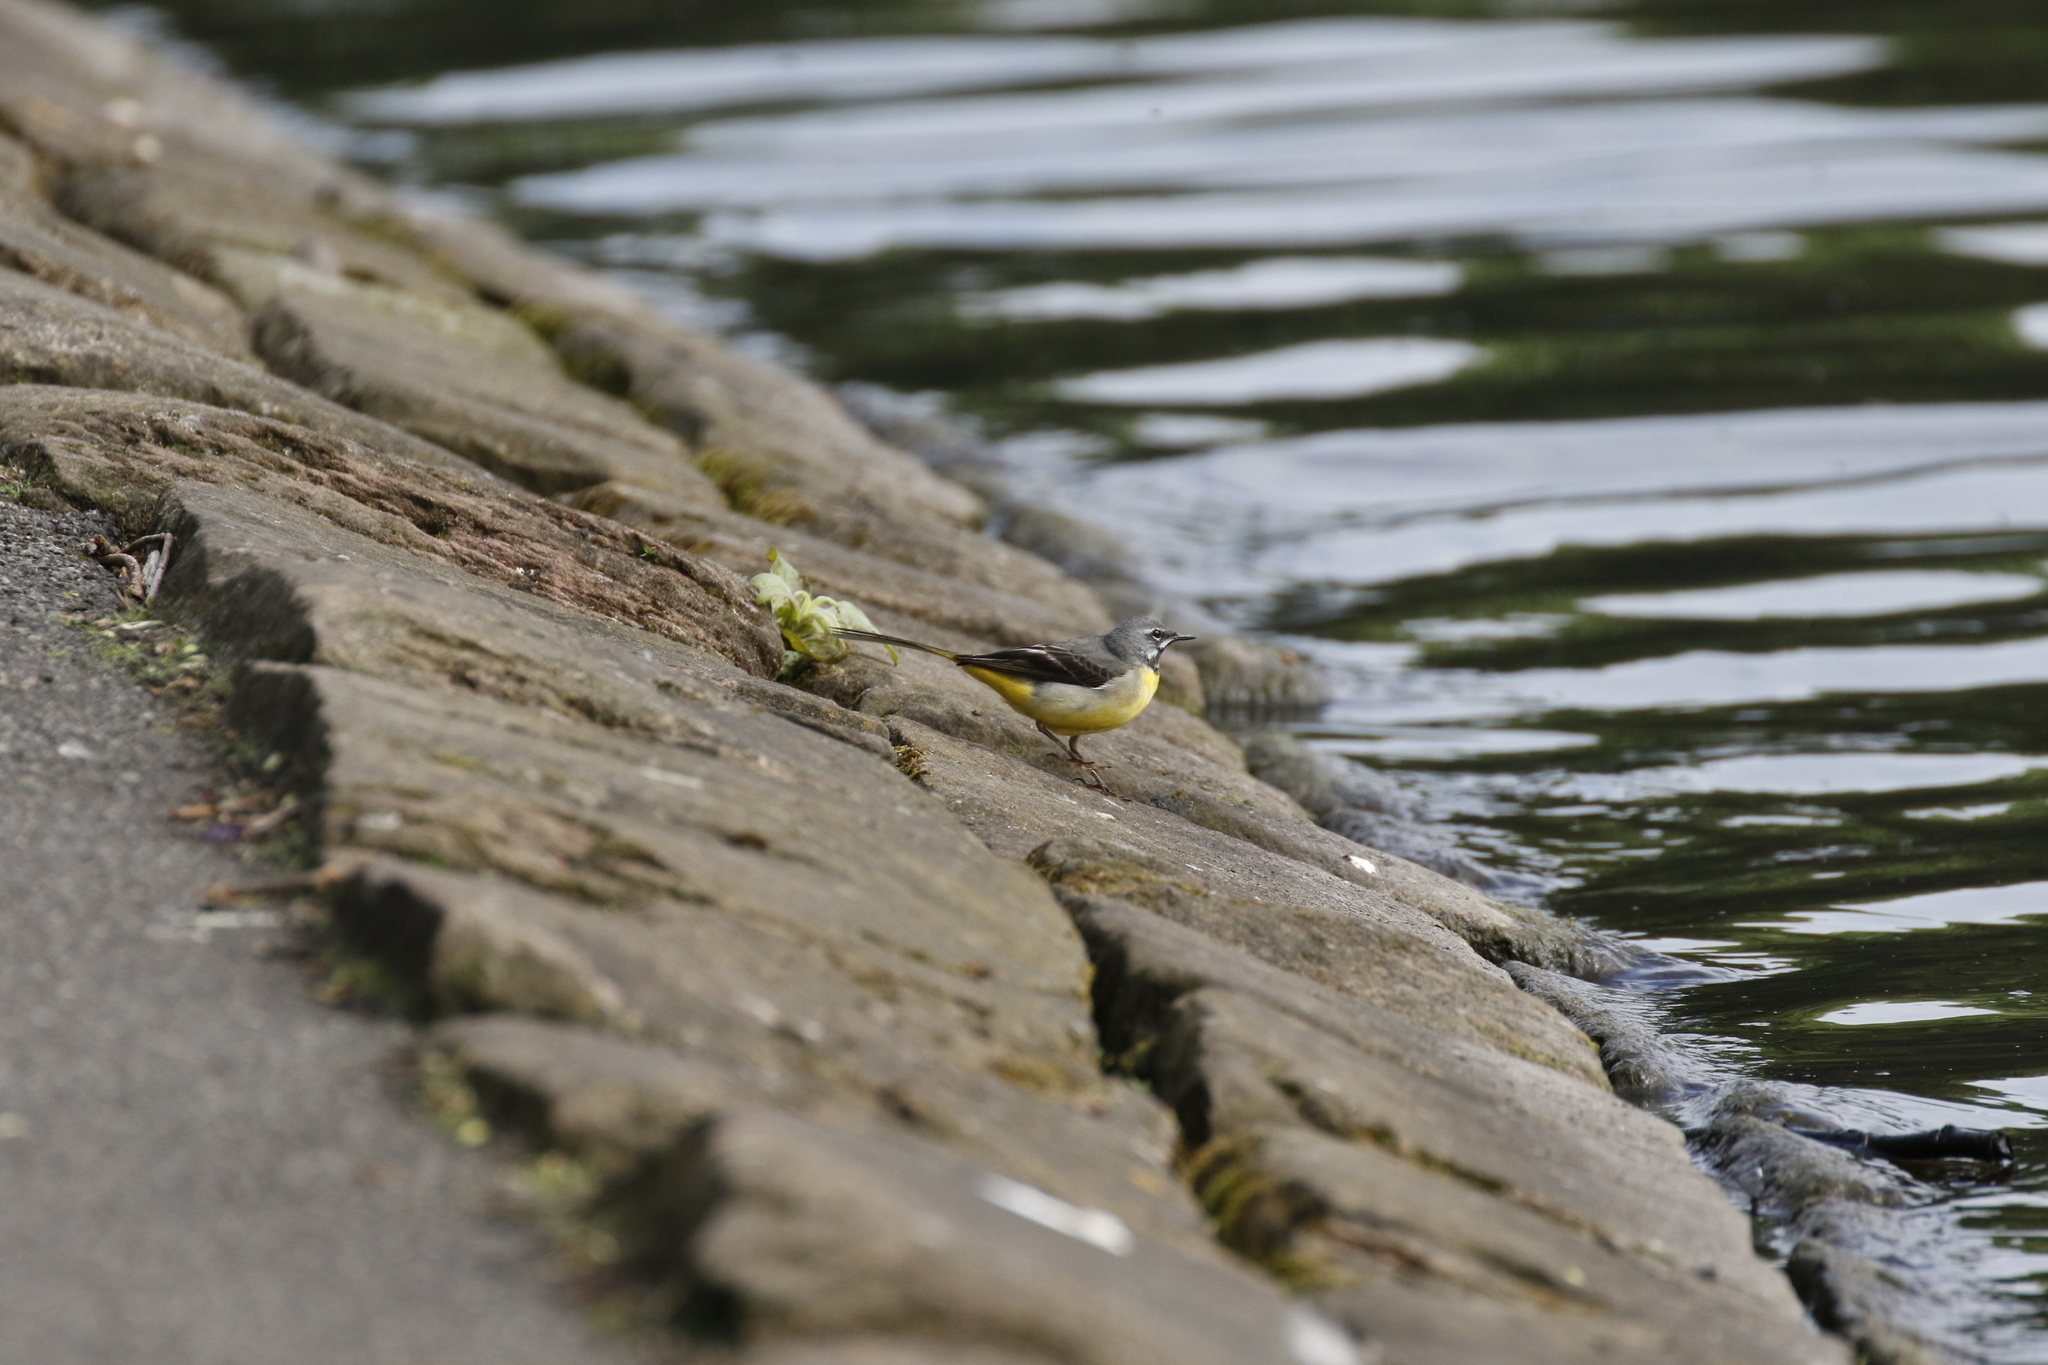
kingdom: Animalia
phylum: Chordata
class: Aves
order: Passeriformes
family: Motacillidae
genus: Motacilla
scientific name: Motacilla cinerea
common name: Grey wagtail
